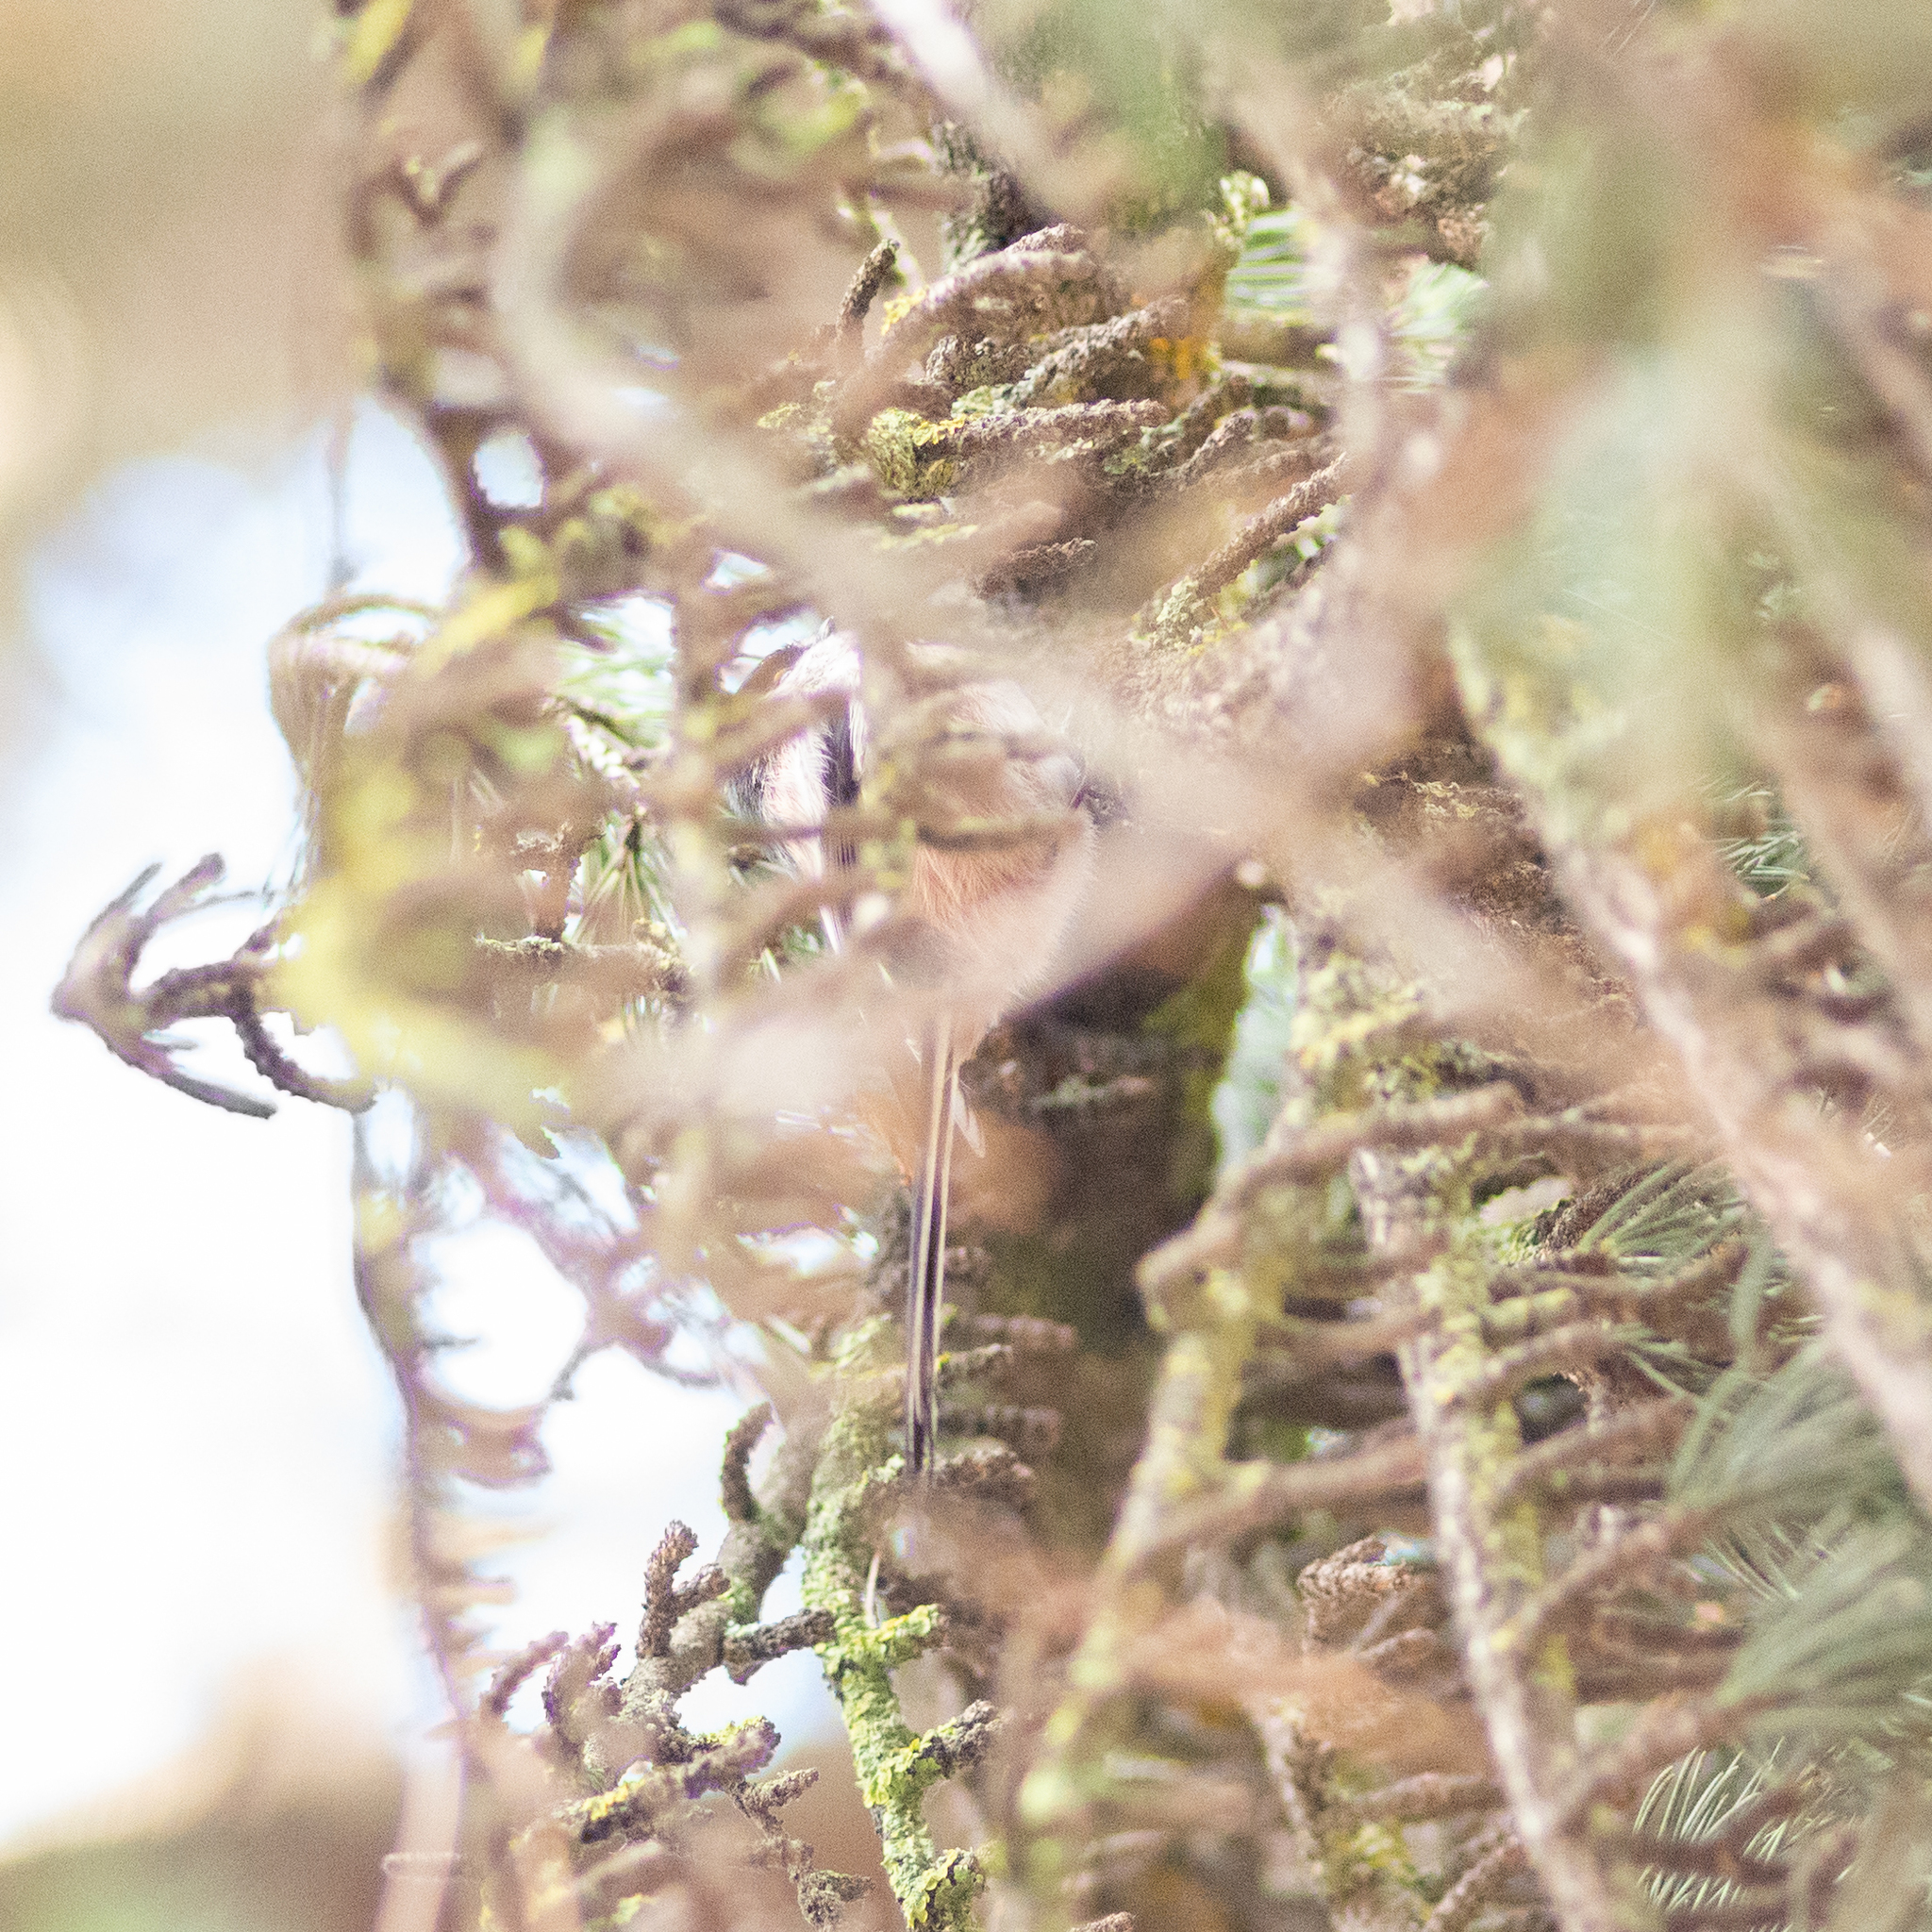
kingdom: Animalia
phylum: Chordata
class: Aves
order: Passeriformes
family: Aegithalidae
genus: Aegithalos
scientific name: Aegithalos caudatus
